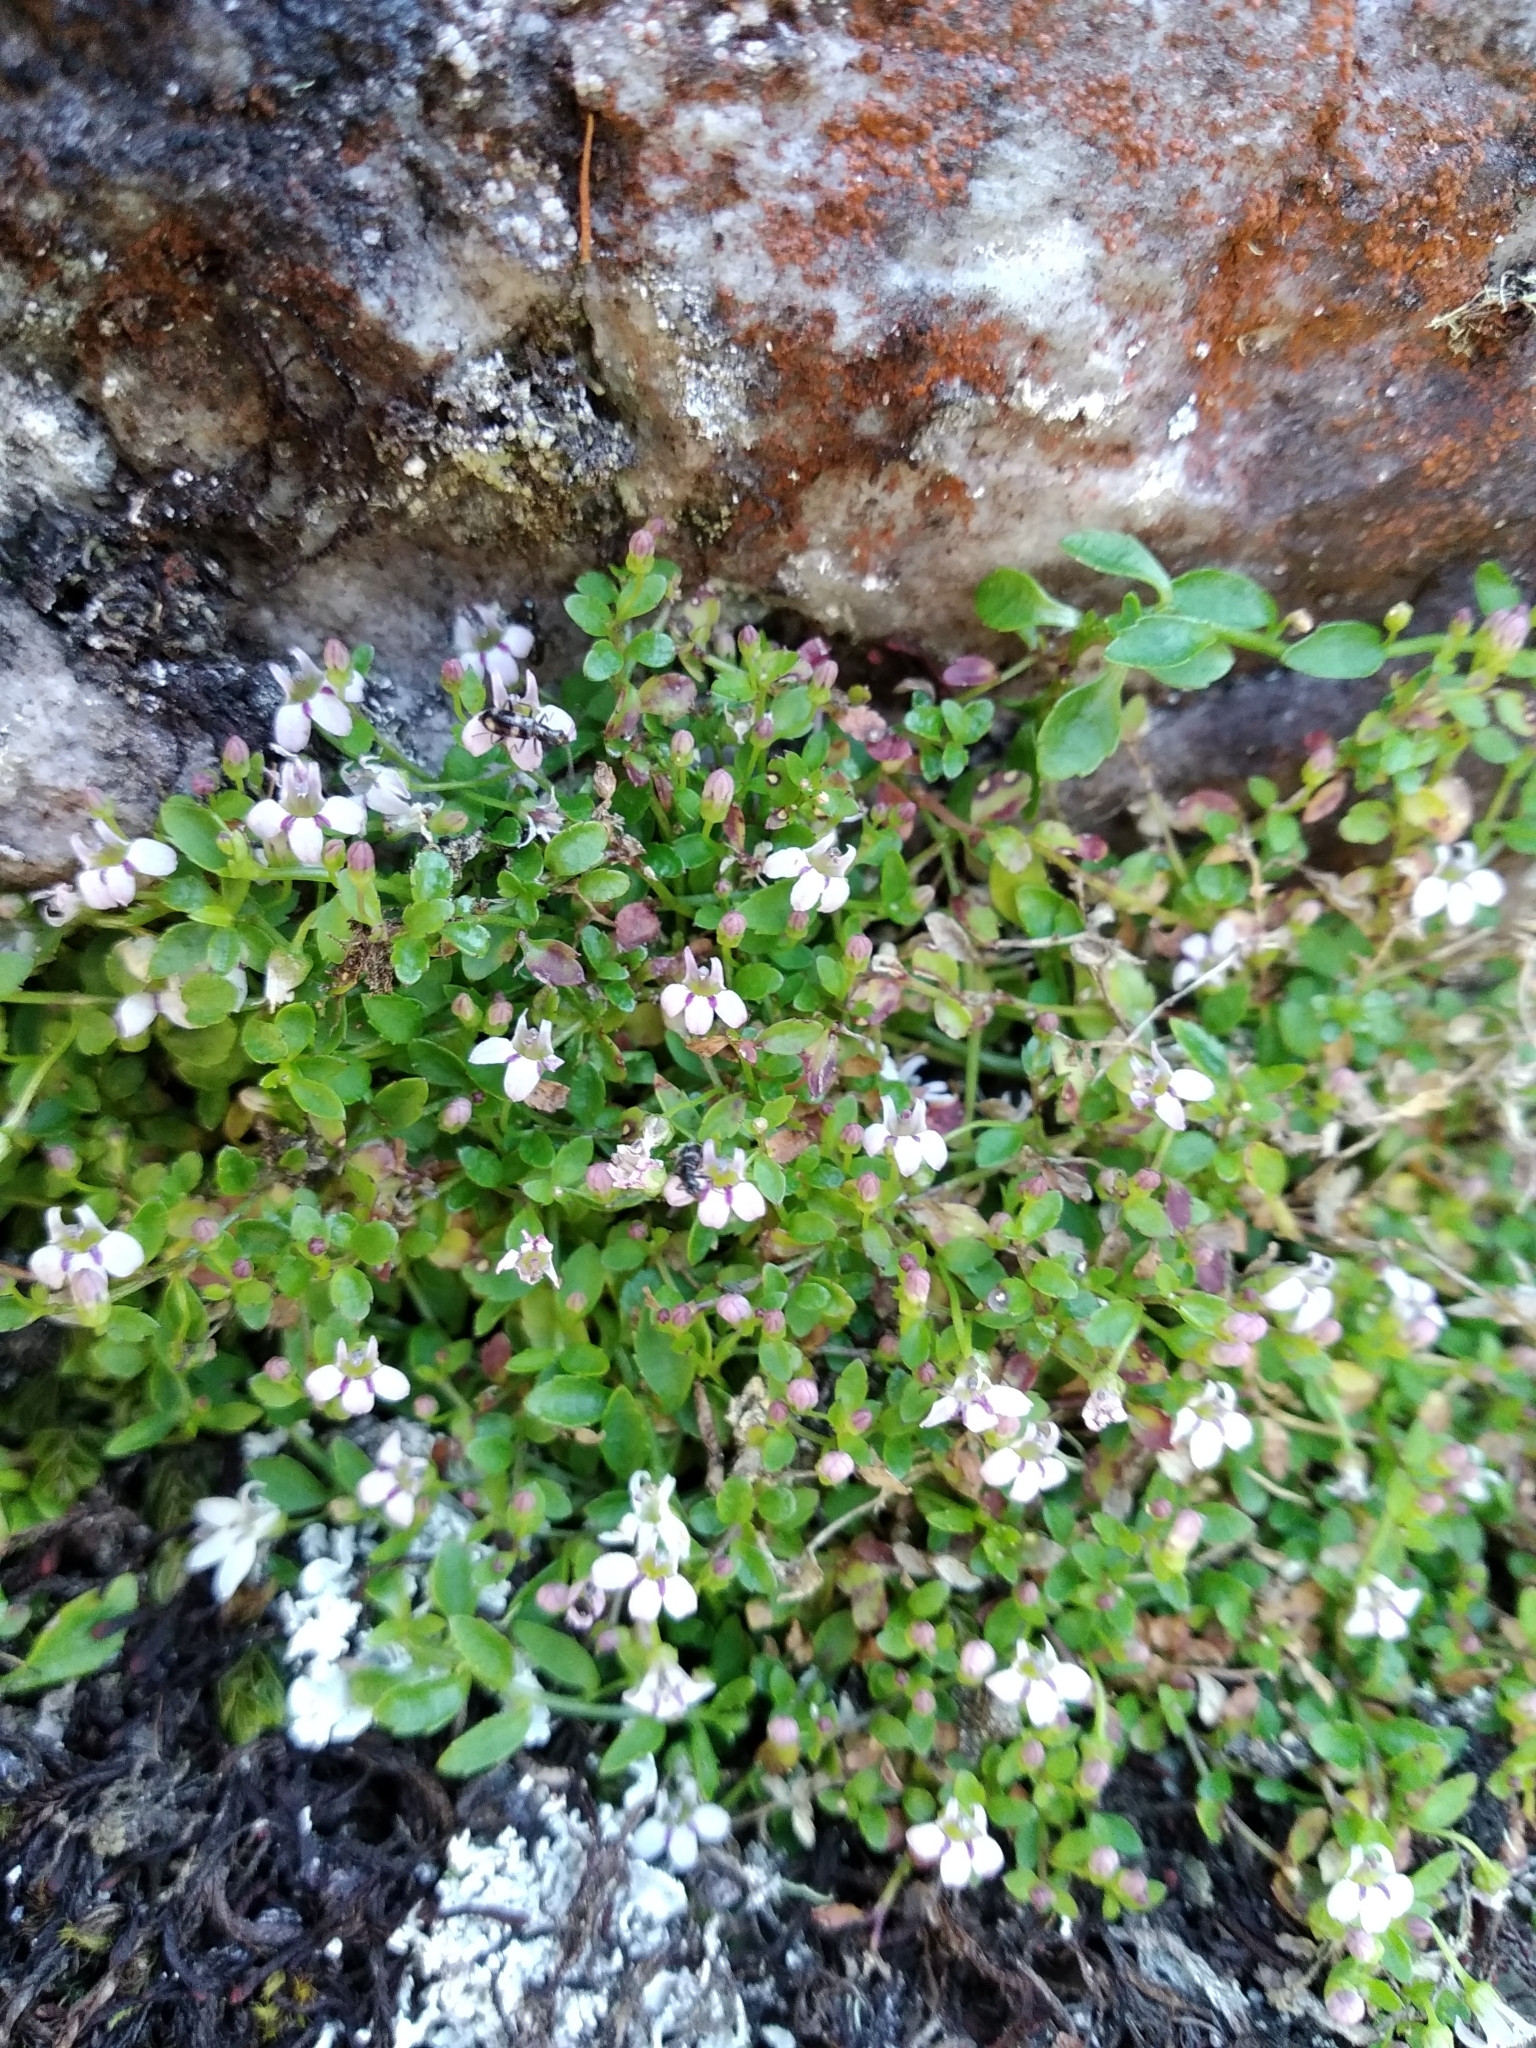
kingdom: Plantae
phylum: Tracheophyta
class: Magnoliopsida
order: Asterales
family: Campanulaceae
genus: Unigenes
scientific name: Unigenes humifusa
